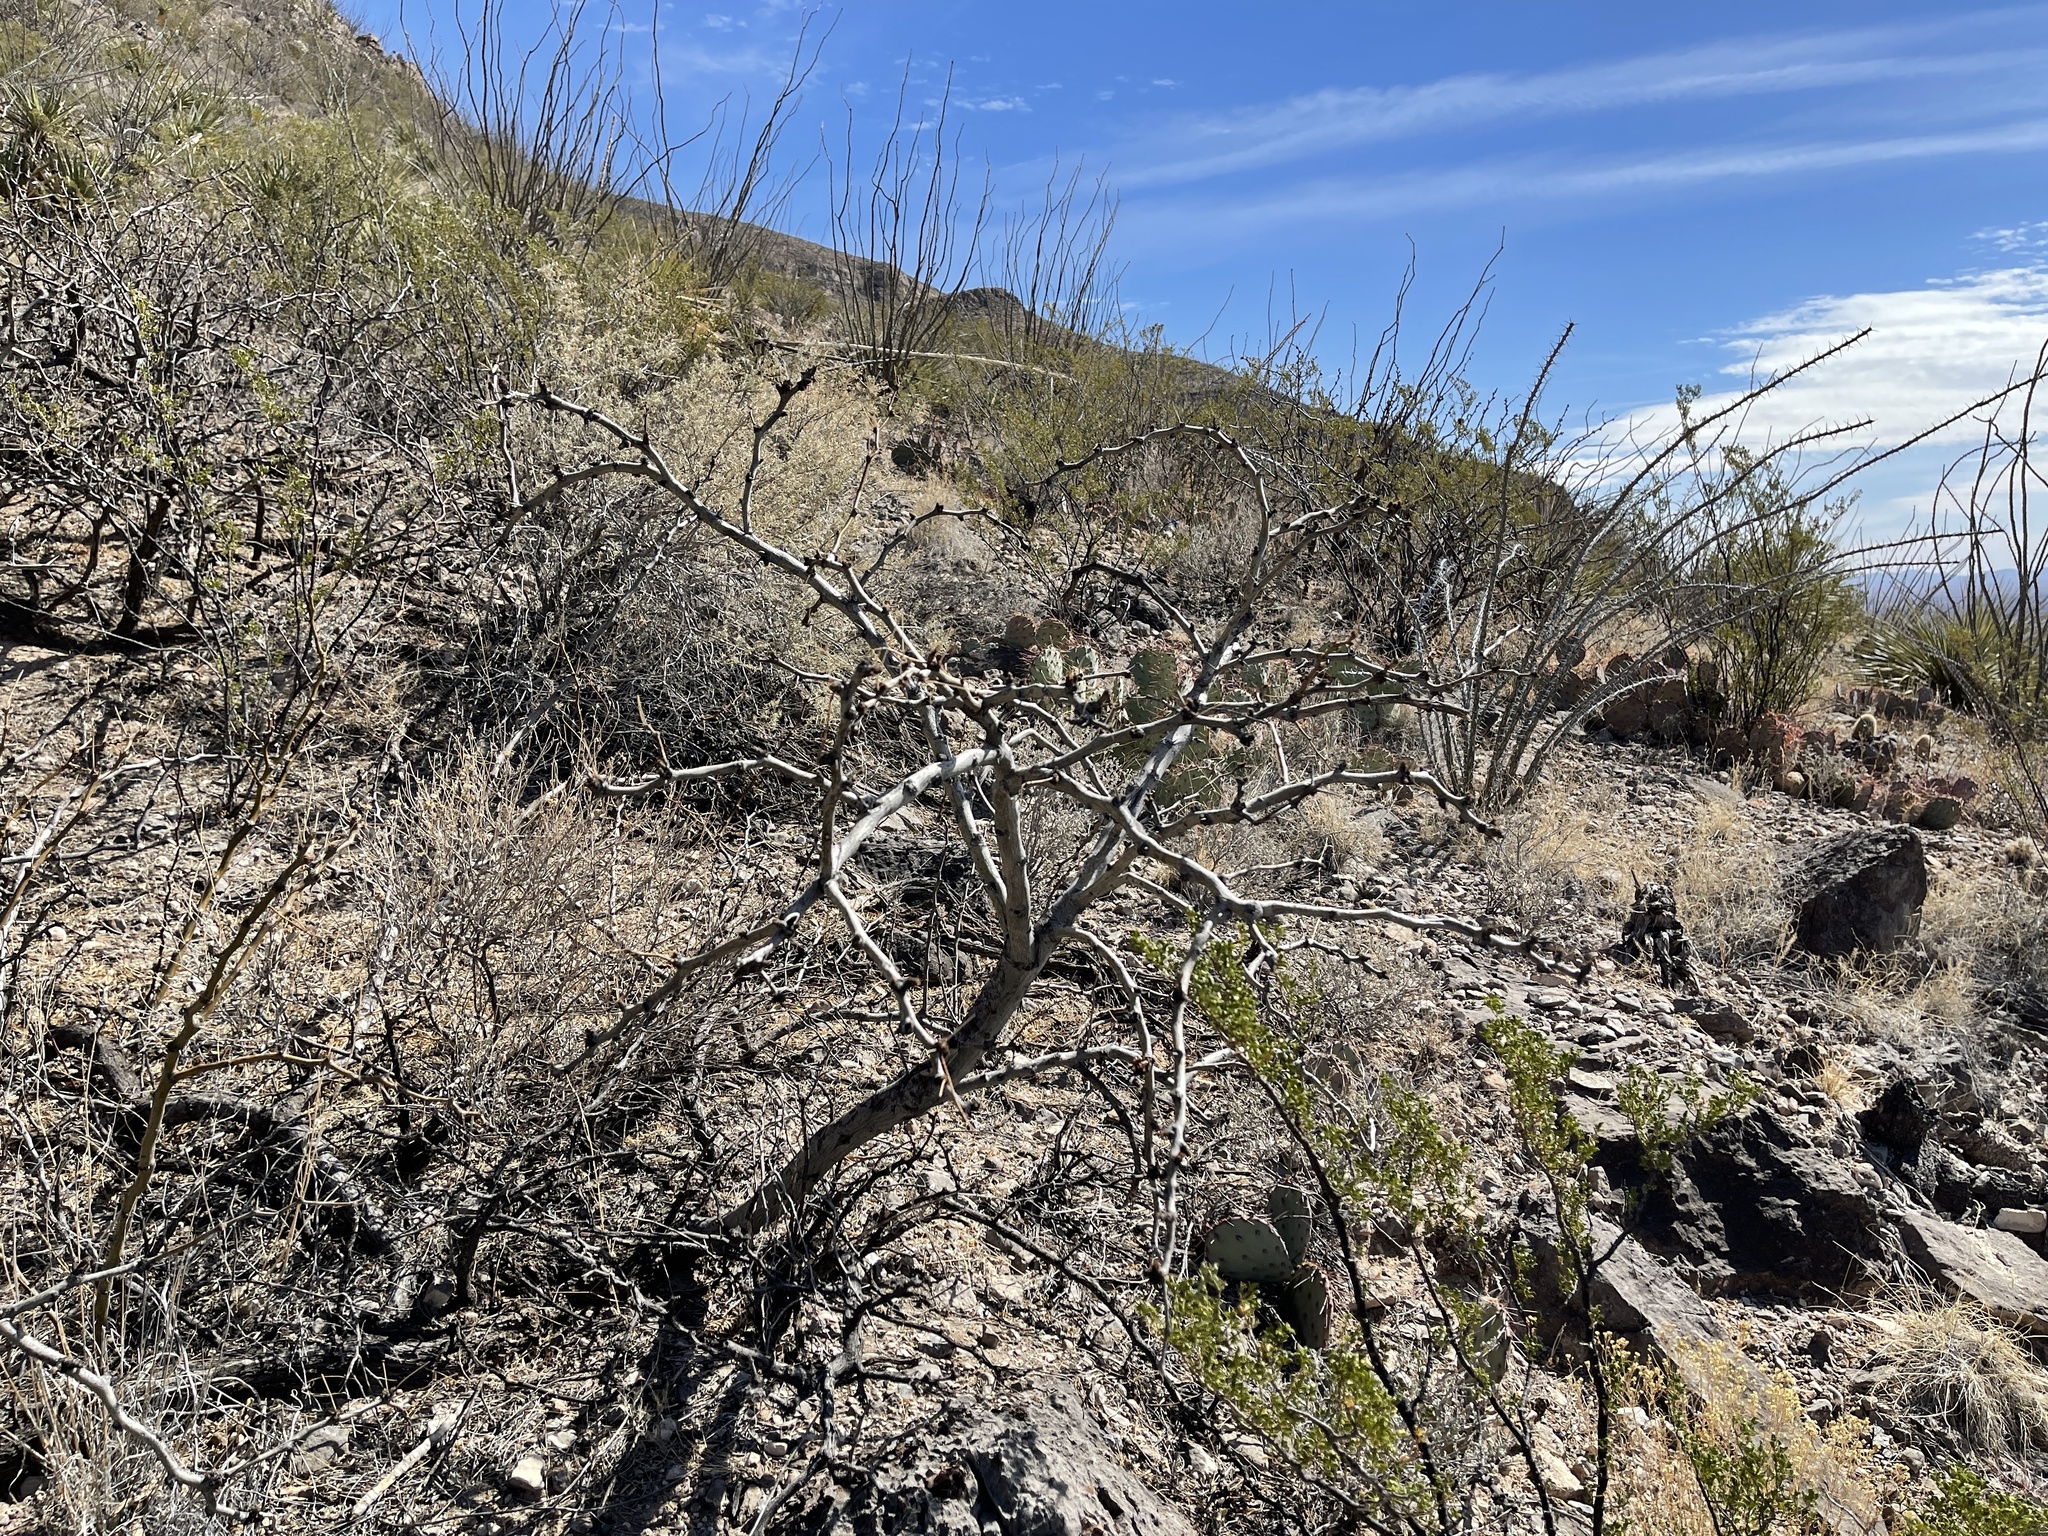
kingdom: Plantae
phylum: Tracheophyta
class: Magnoliopsida
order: Fabales
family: Fabaceae
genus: Prosopis
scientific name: Prosopis glandulosa
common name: Honey mesquite
